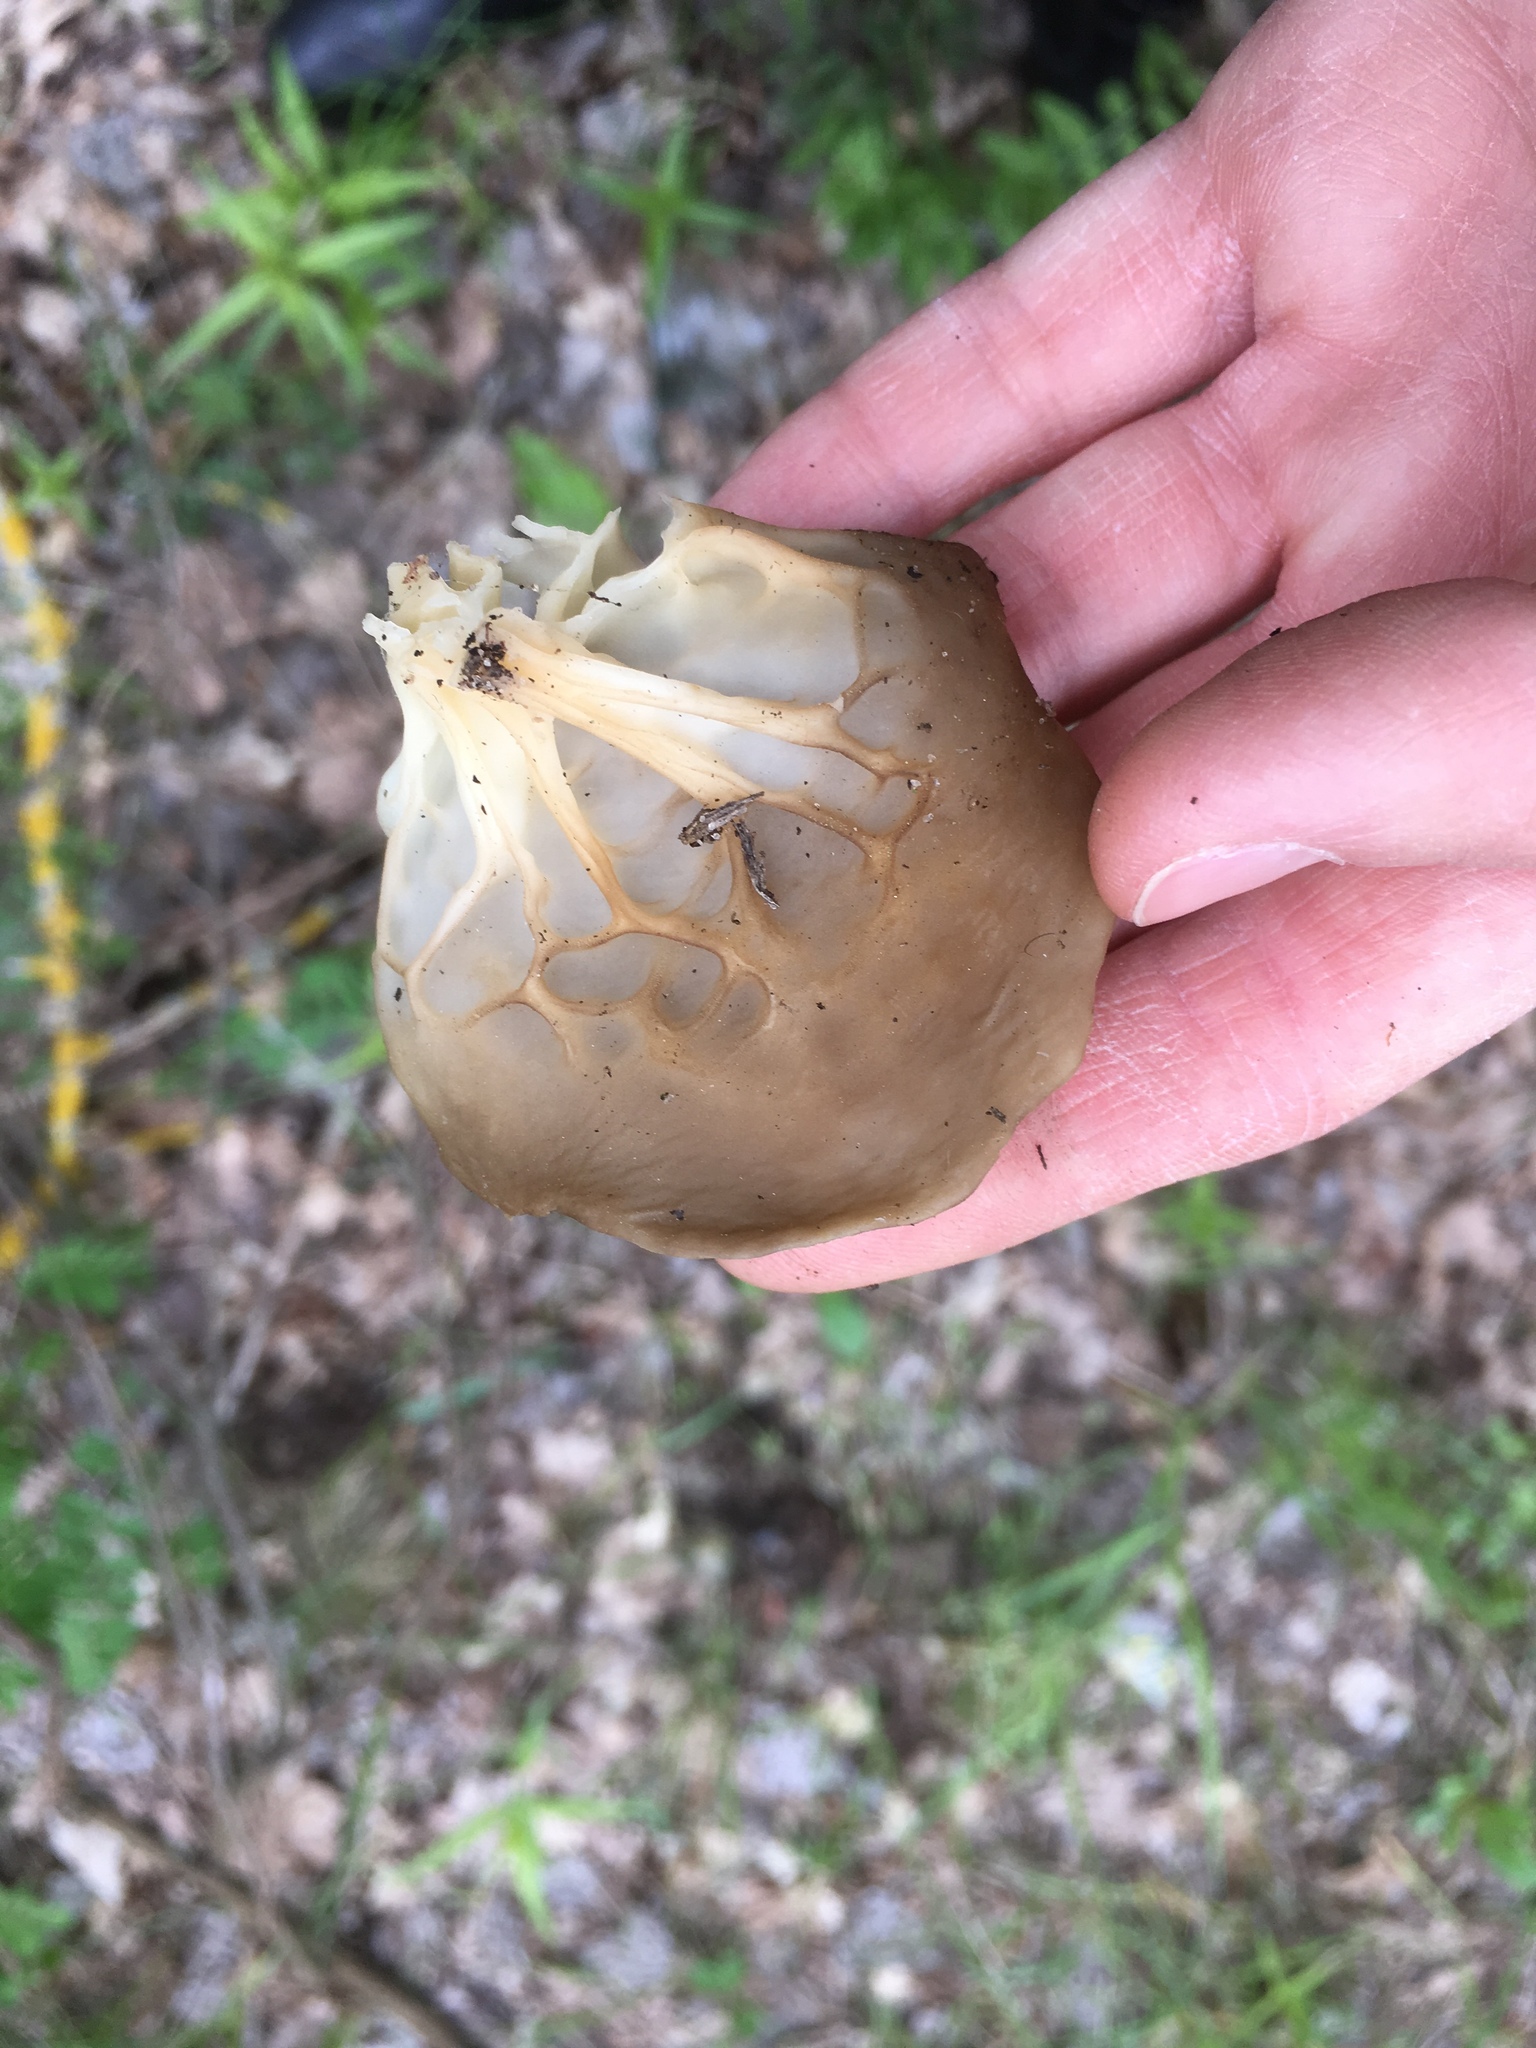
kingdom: Fungi
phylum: Ascomycota
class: Pezizomycetes
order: Pezizales
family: Helvellaceae
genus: Helvella
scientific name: Helvella acetabulum
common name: Vinegar cup
